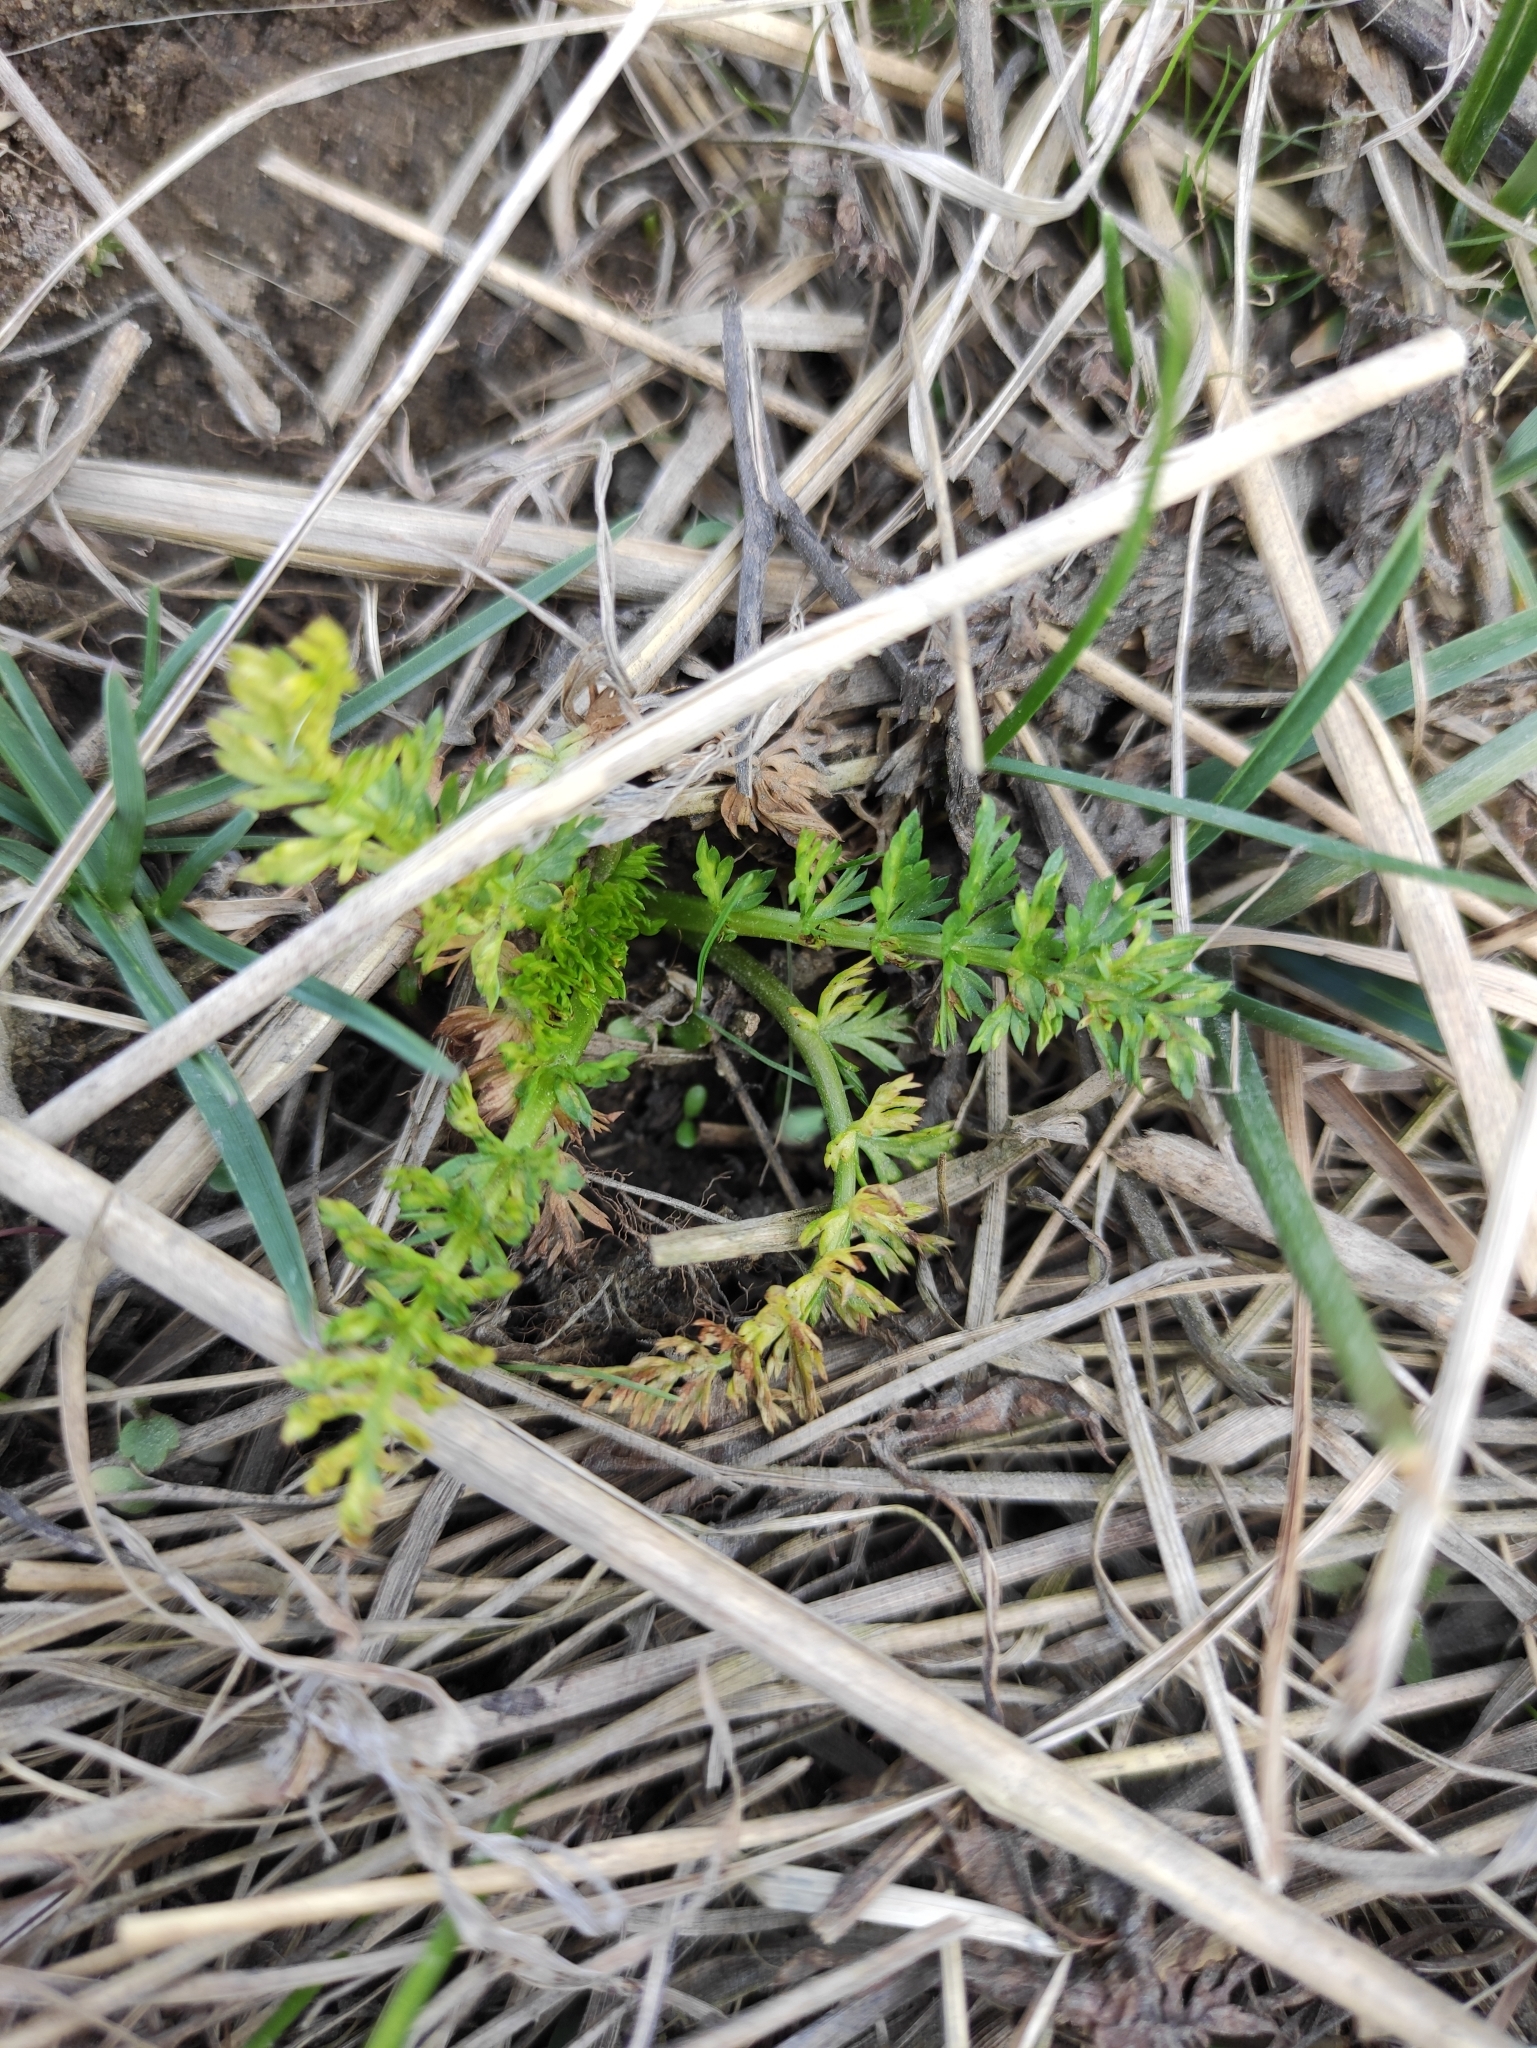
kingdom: Plantae
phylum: Tracheophyta
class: Magnoliopsida
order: Apiales
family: Apiaceae
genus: Carum
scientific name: Carum carvi
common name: Caraway
